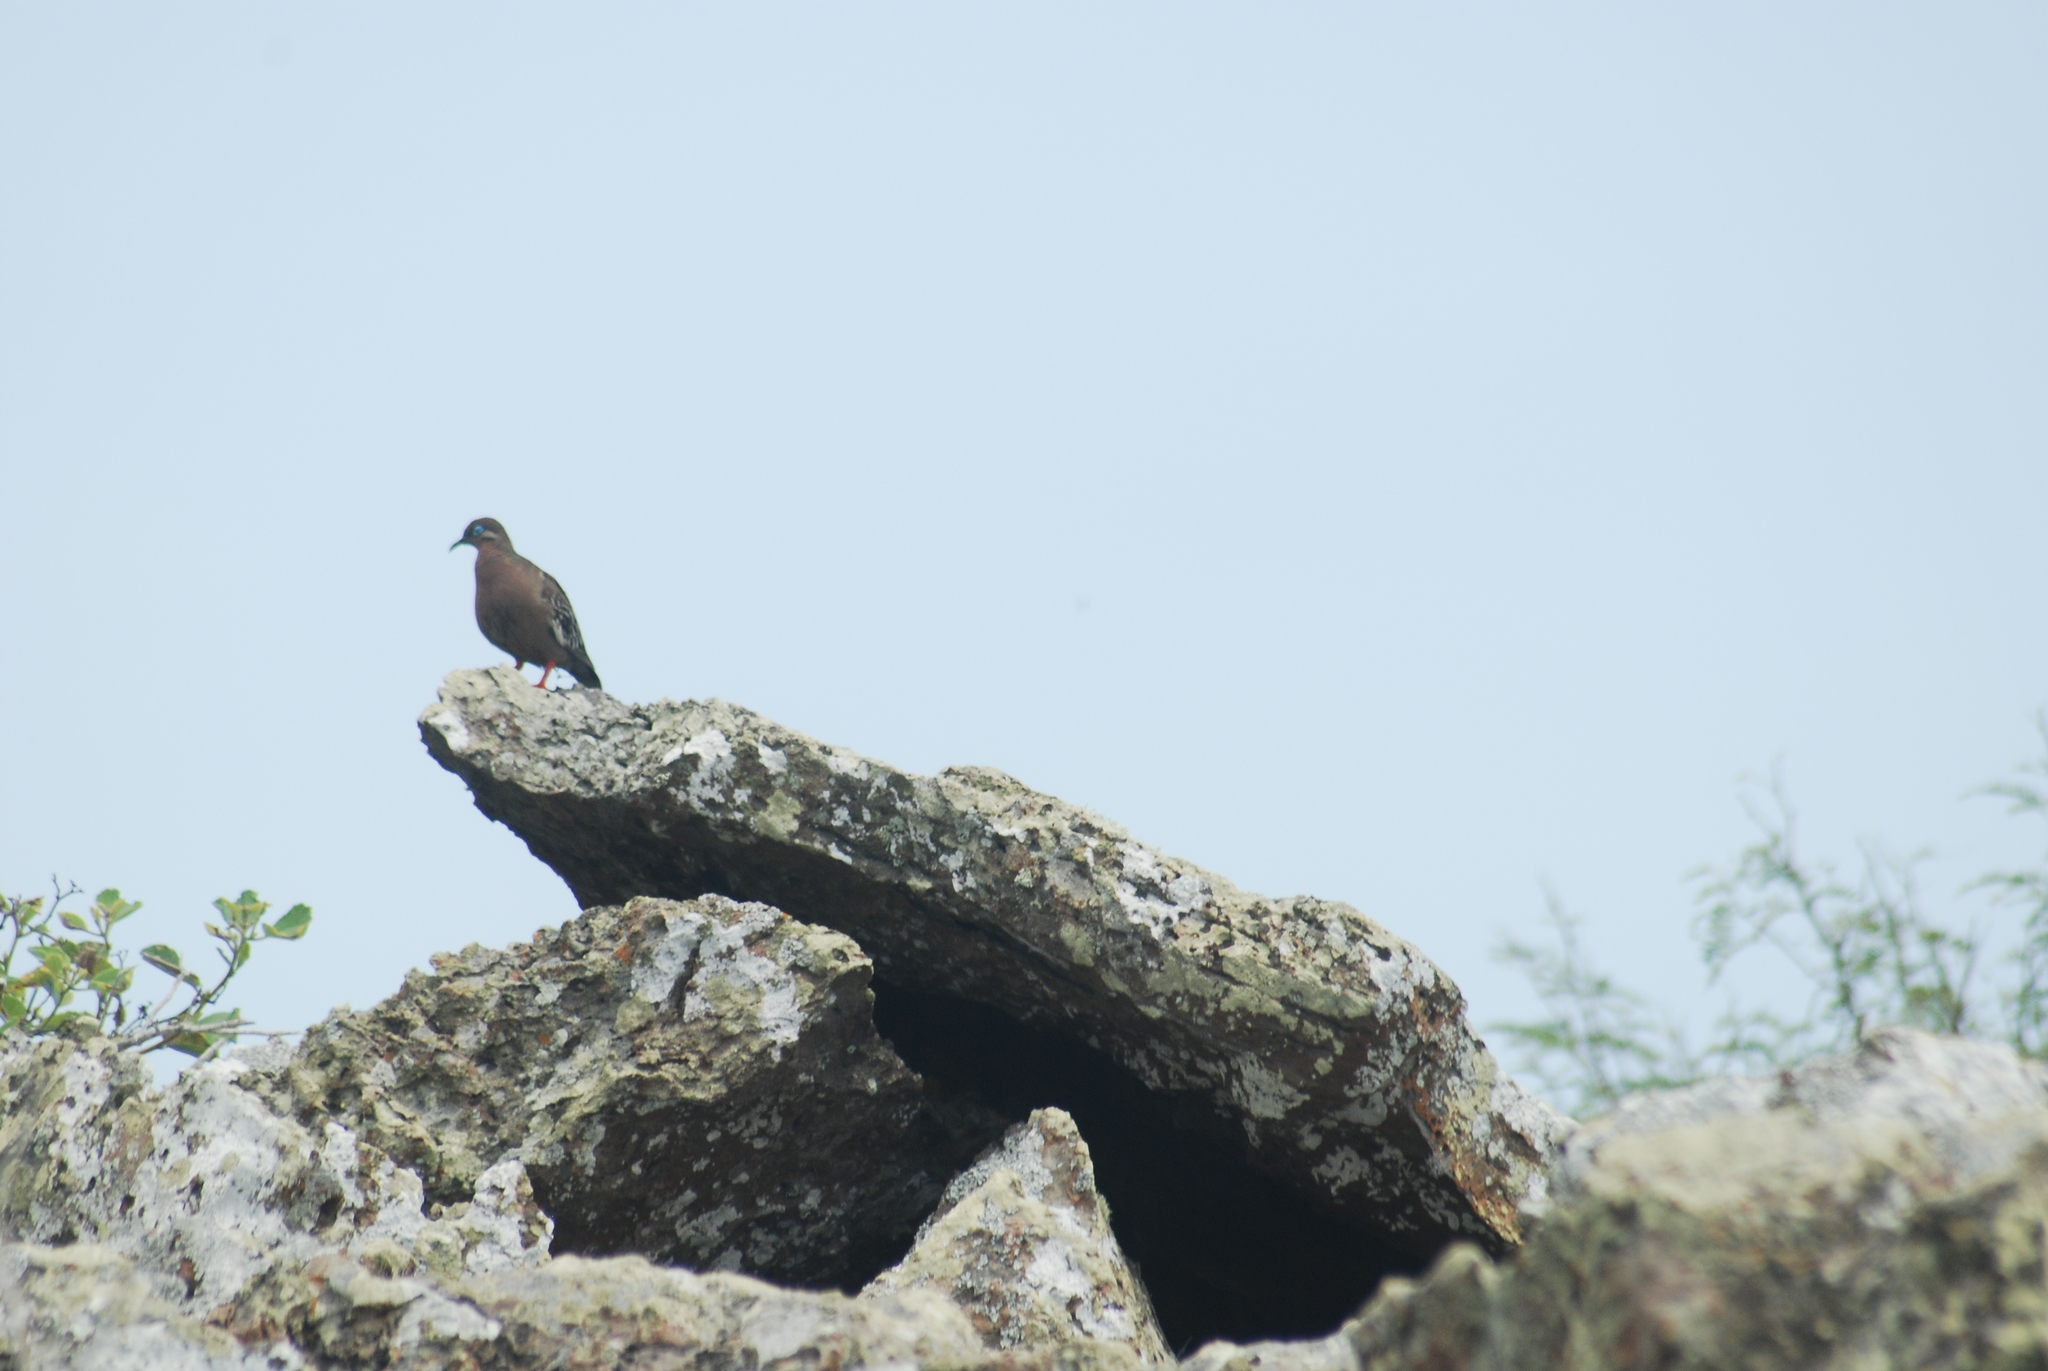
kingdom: Animalia
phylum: Chordata
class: Aves
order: Columbiformes
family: Columbidae
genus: Zenaida
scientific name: Zenaida galapagoensis
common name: Galapagos dove
